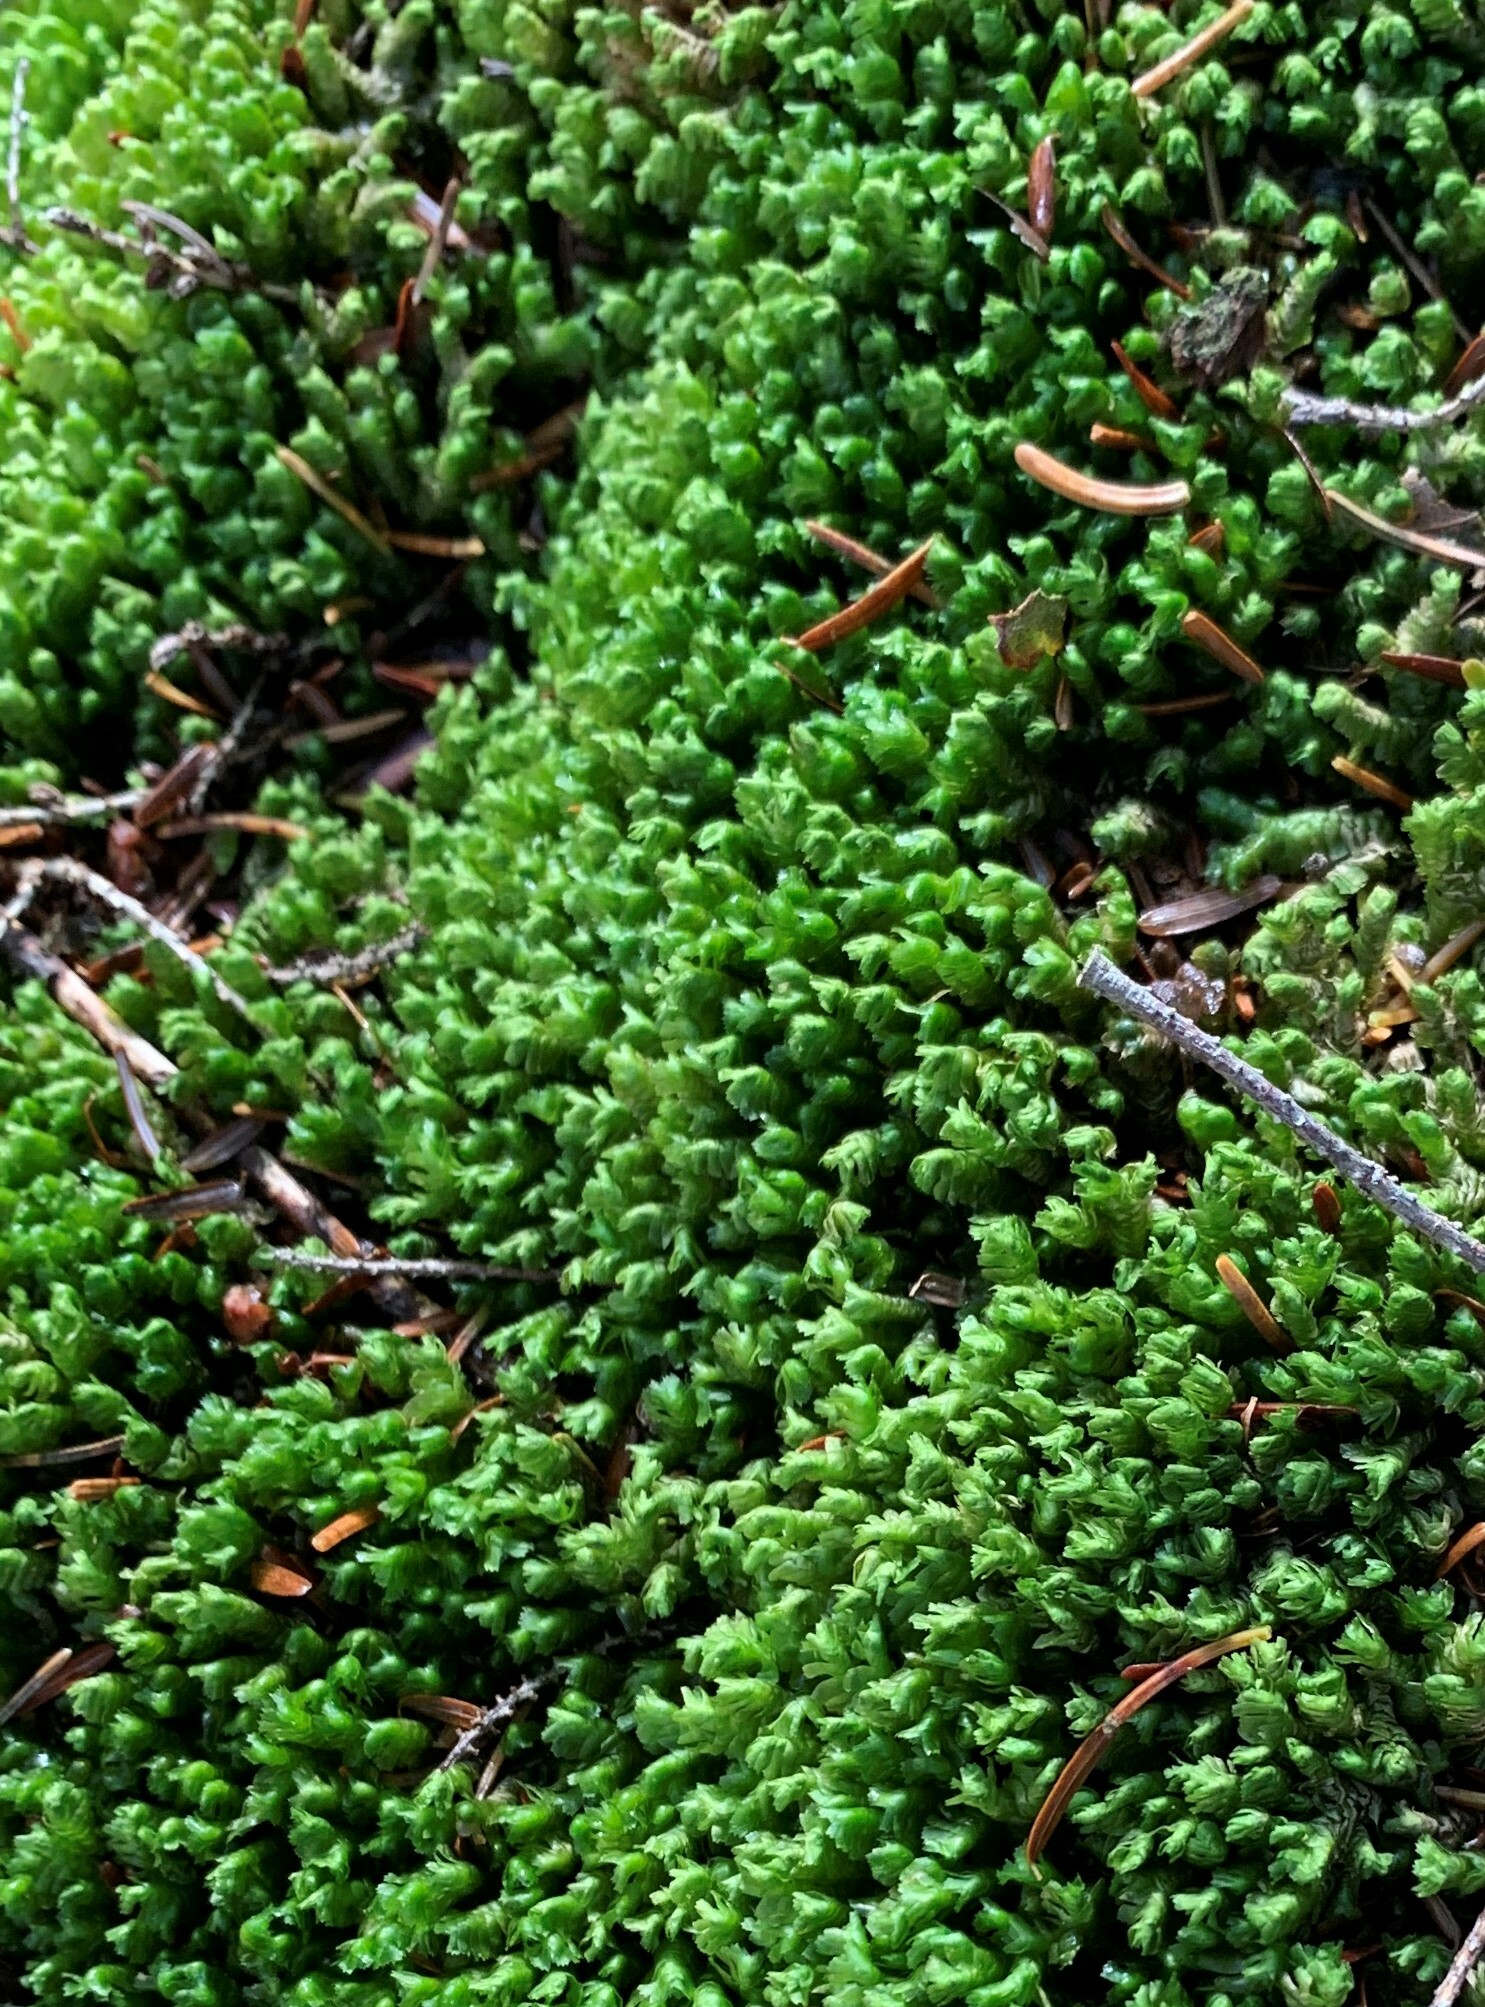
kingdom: Plantae
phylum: Marchantiophyta
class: Jungermanniopsida
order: Jungermanniales
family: Lepidoziaceae
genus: Bazzania
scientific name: Bazzania trilobata
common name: Three-lobed whipwort
